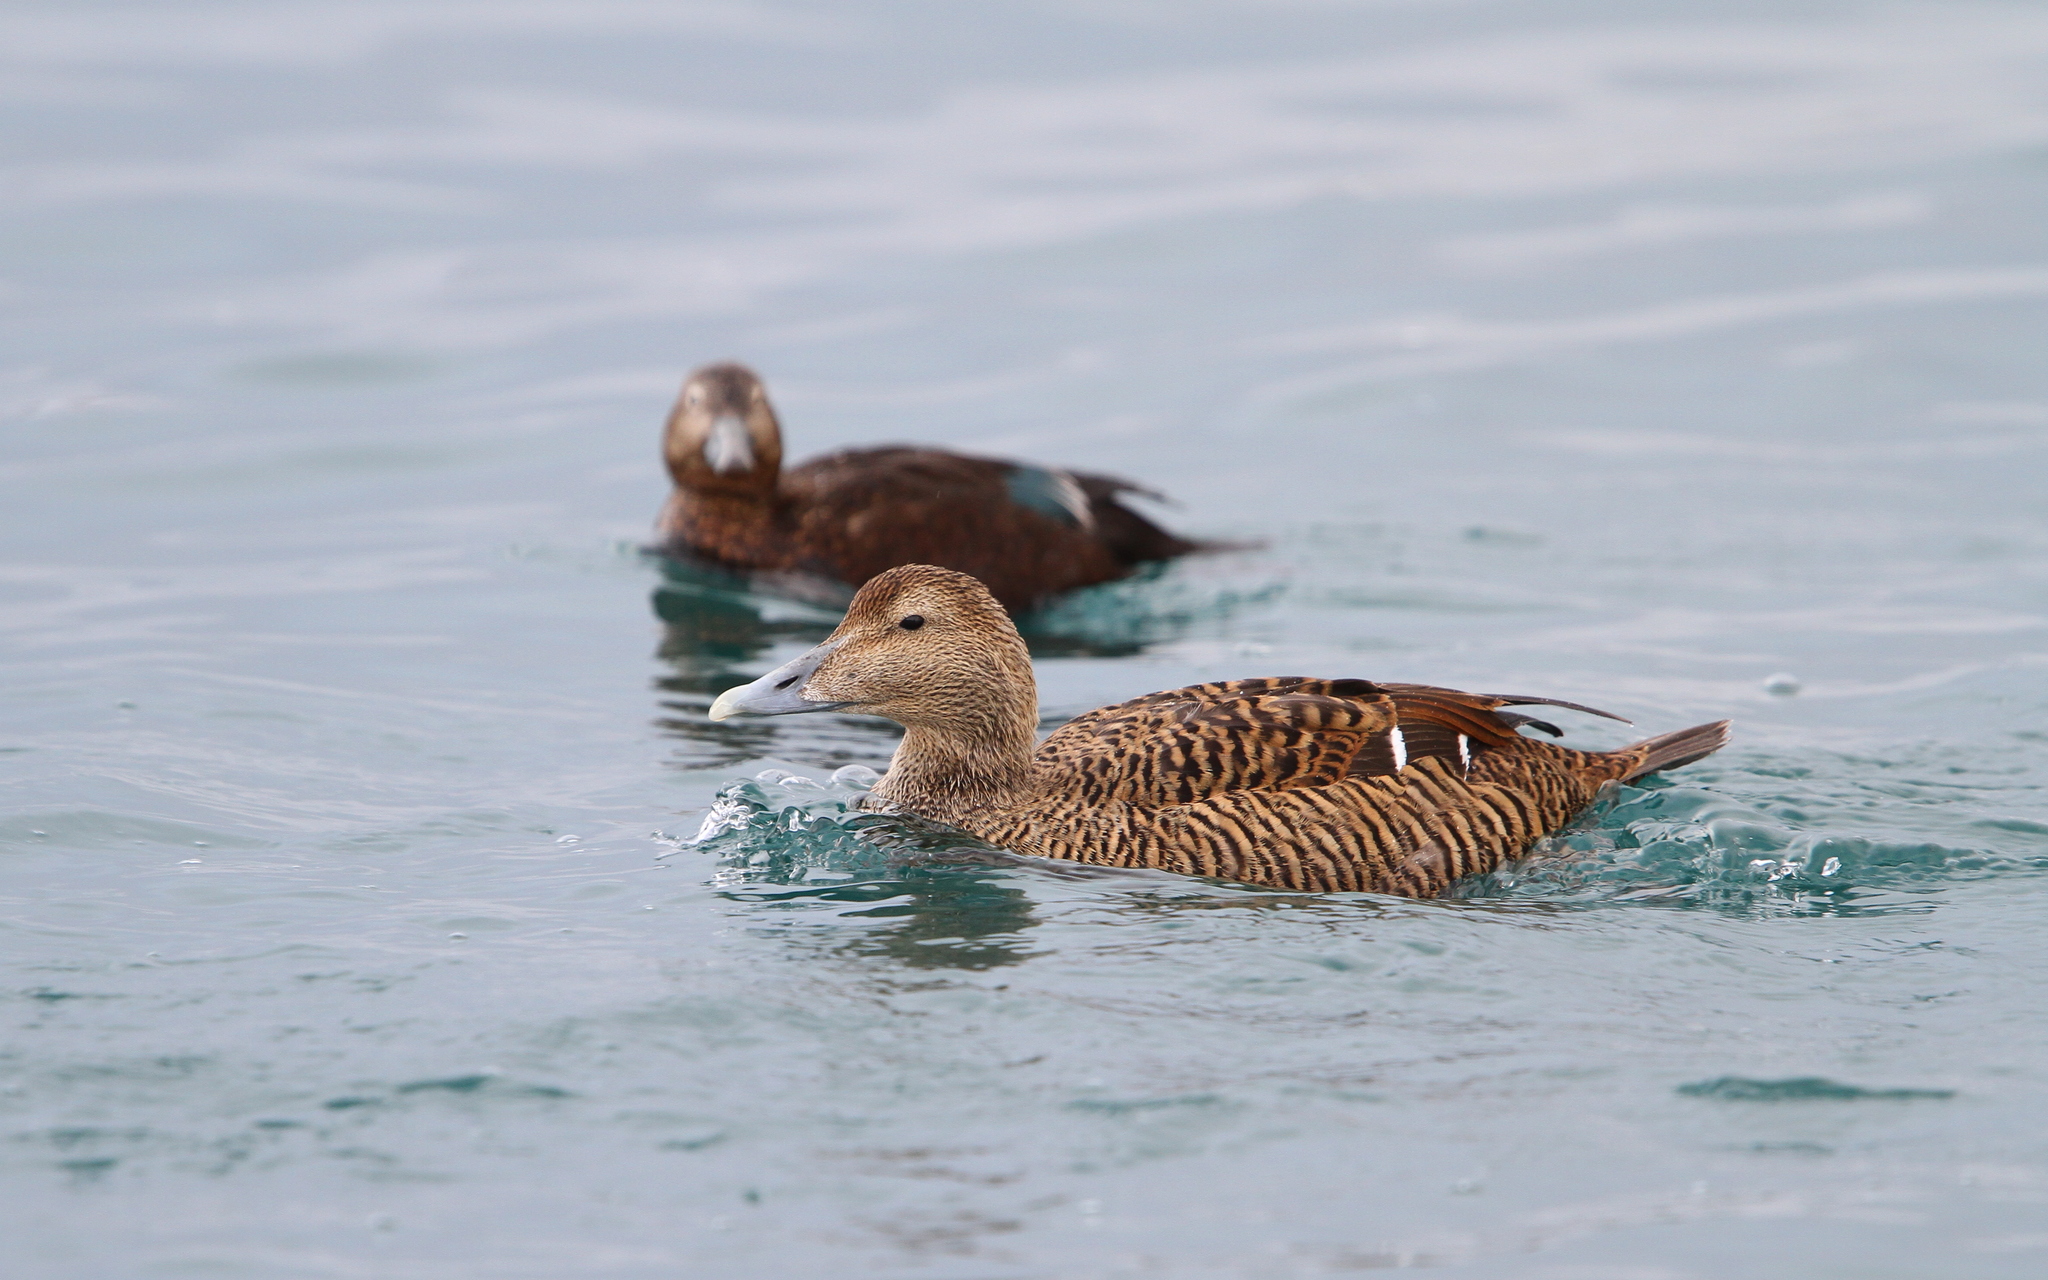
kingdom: Animalia
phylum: Chordata
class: Aves
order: Anseriformes
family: Anatidae
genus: Somateria
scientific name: Somateria mollissima
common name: Common eider
